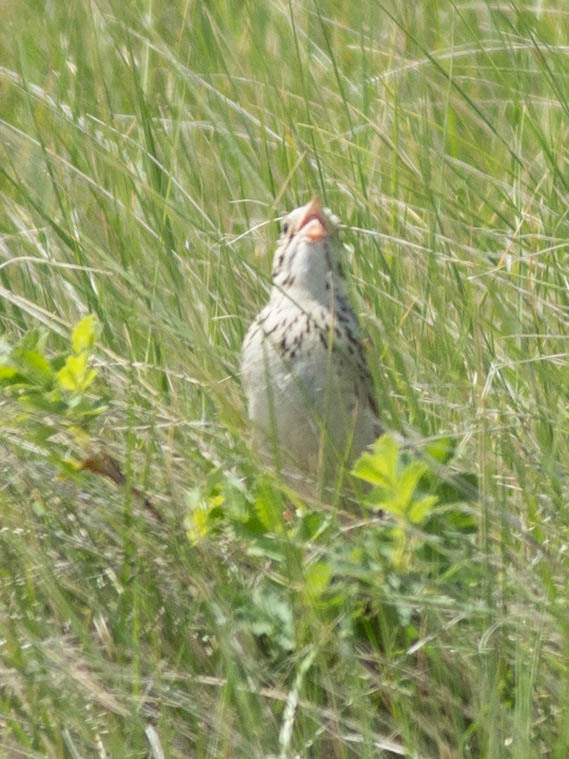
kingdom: Animalia
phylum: Chordata
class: Aves
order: Passeriformes
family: Passerellidae
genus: Centronyx
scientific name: Centronyx bairdii
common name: Baird's sparrow
